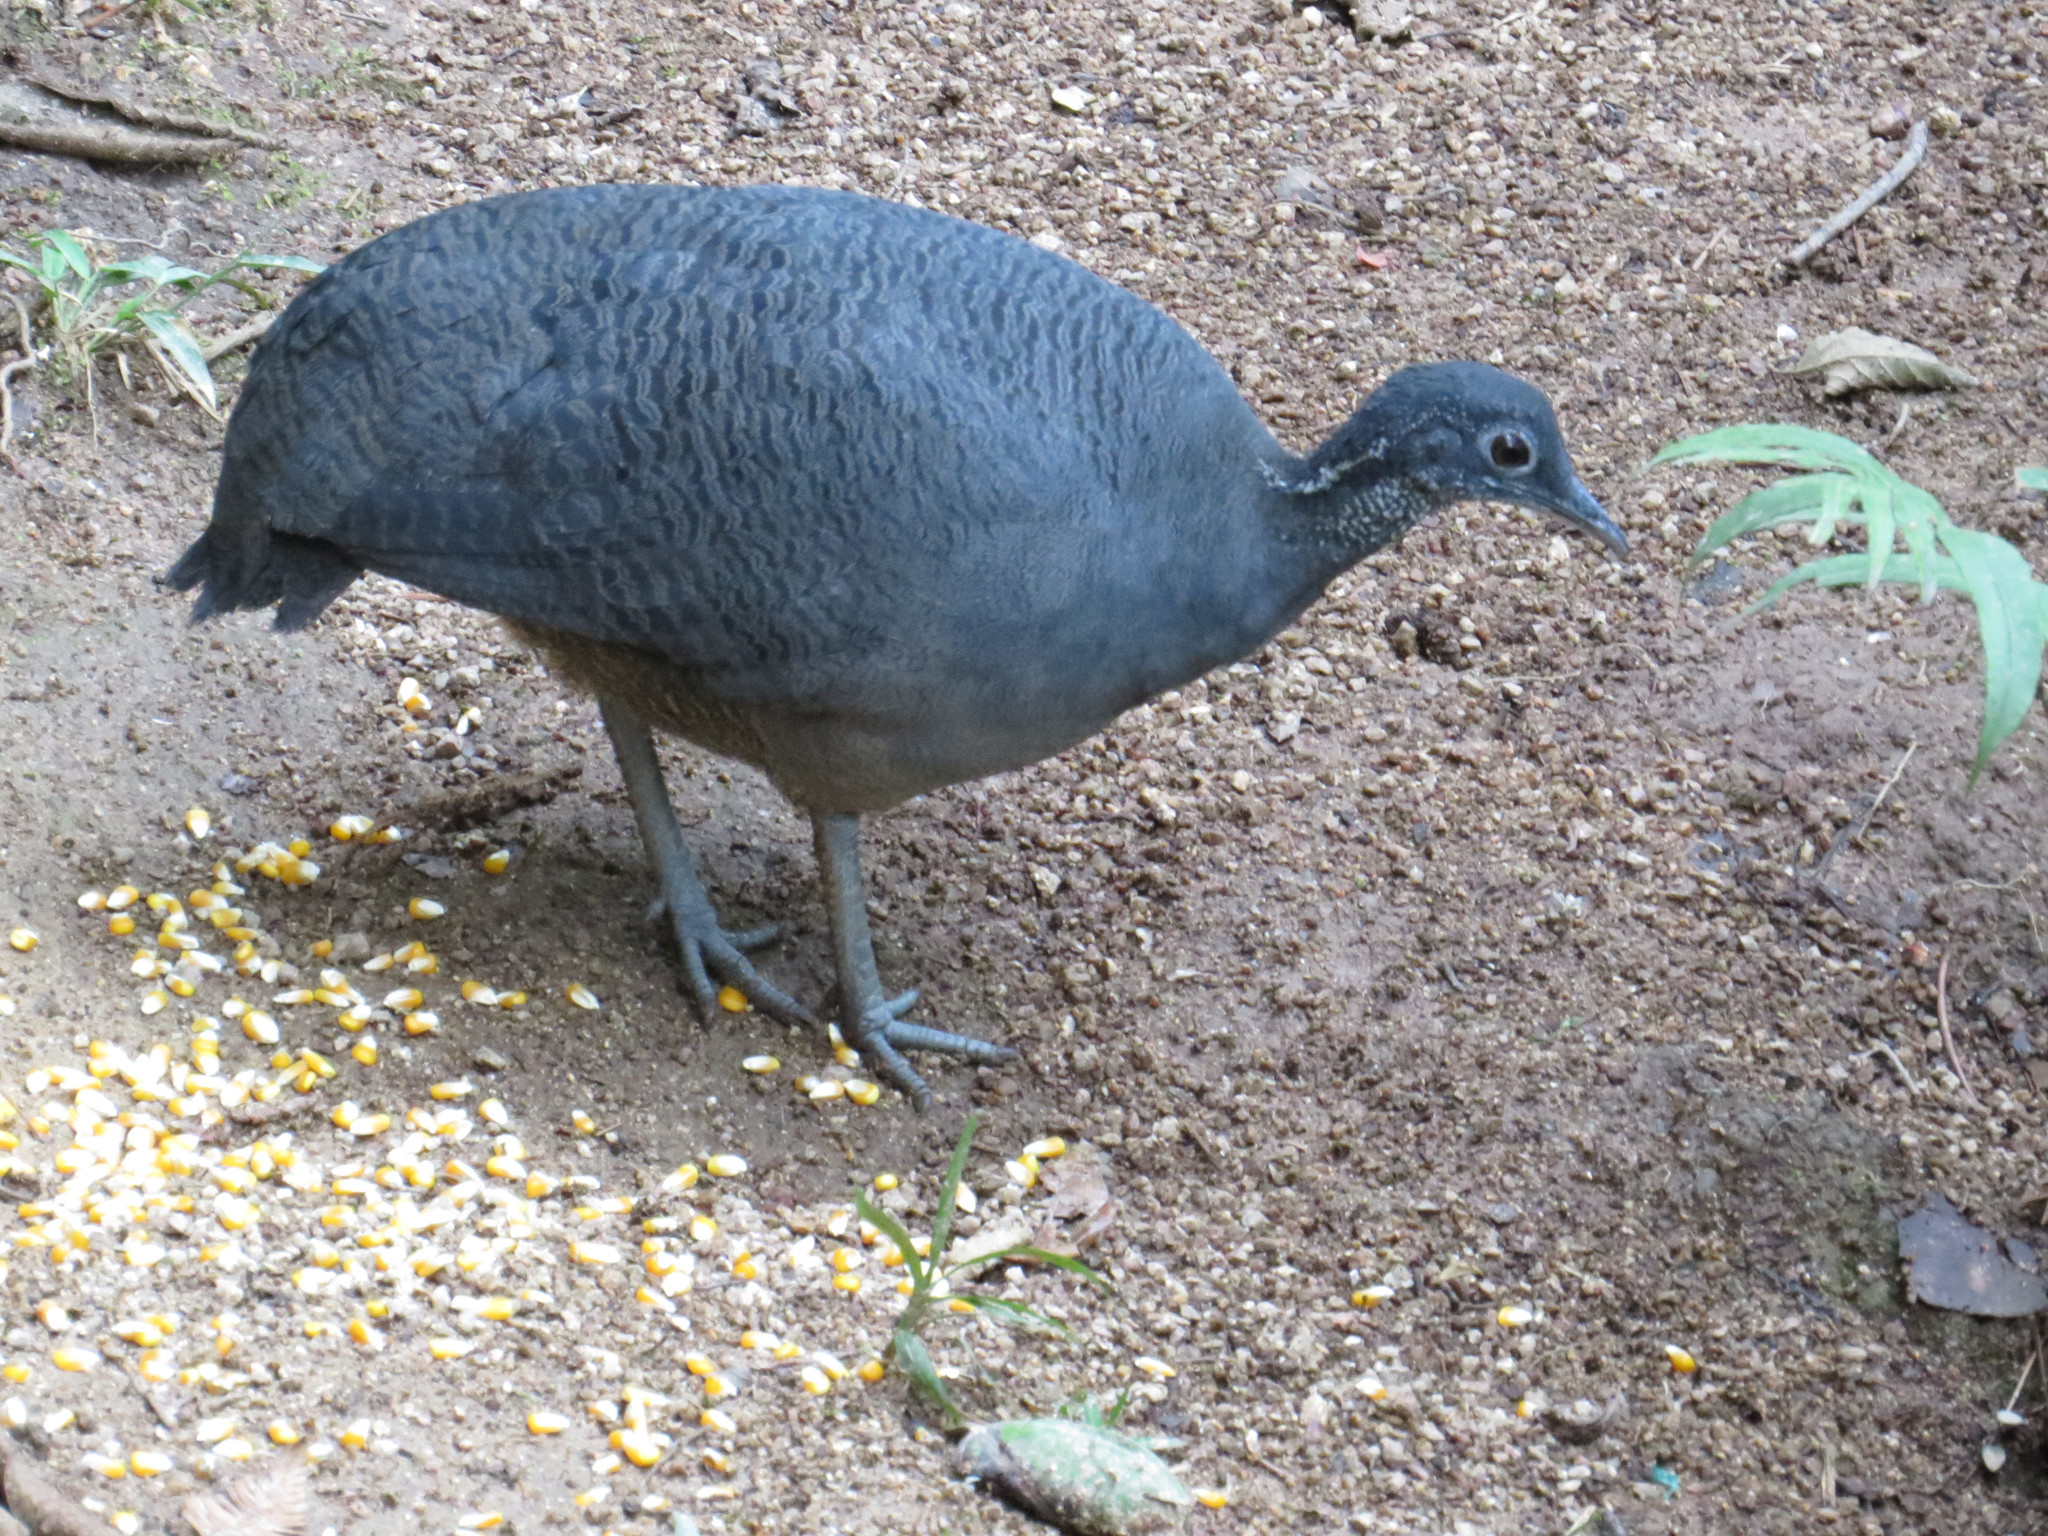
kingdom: Animalia
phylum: Chordata
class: Aves
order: Tinamiformes
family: Tinamidae
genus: Tinamus
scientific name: Tinamus tao
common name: Grey tinamou
